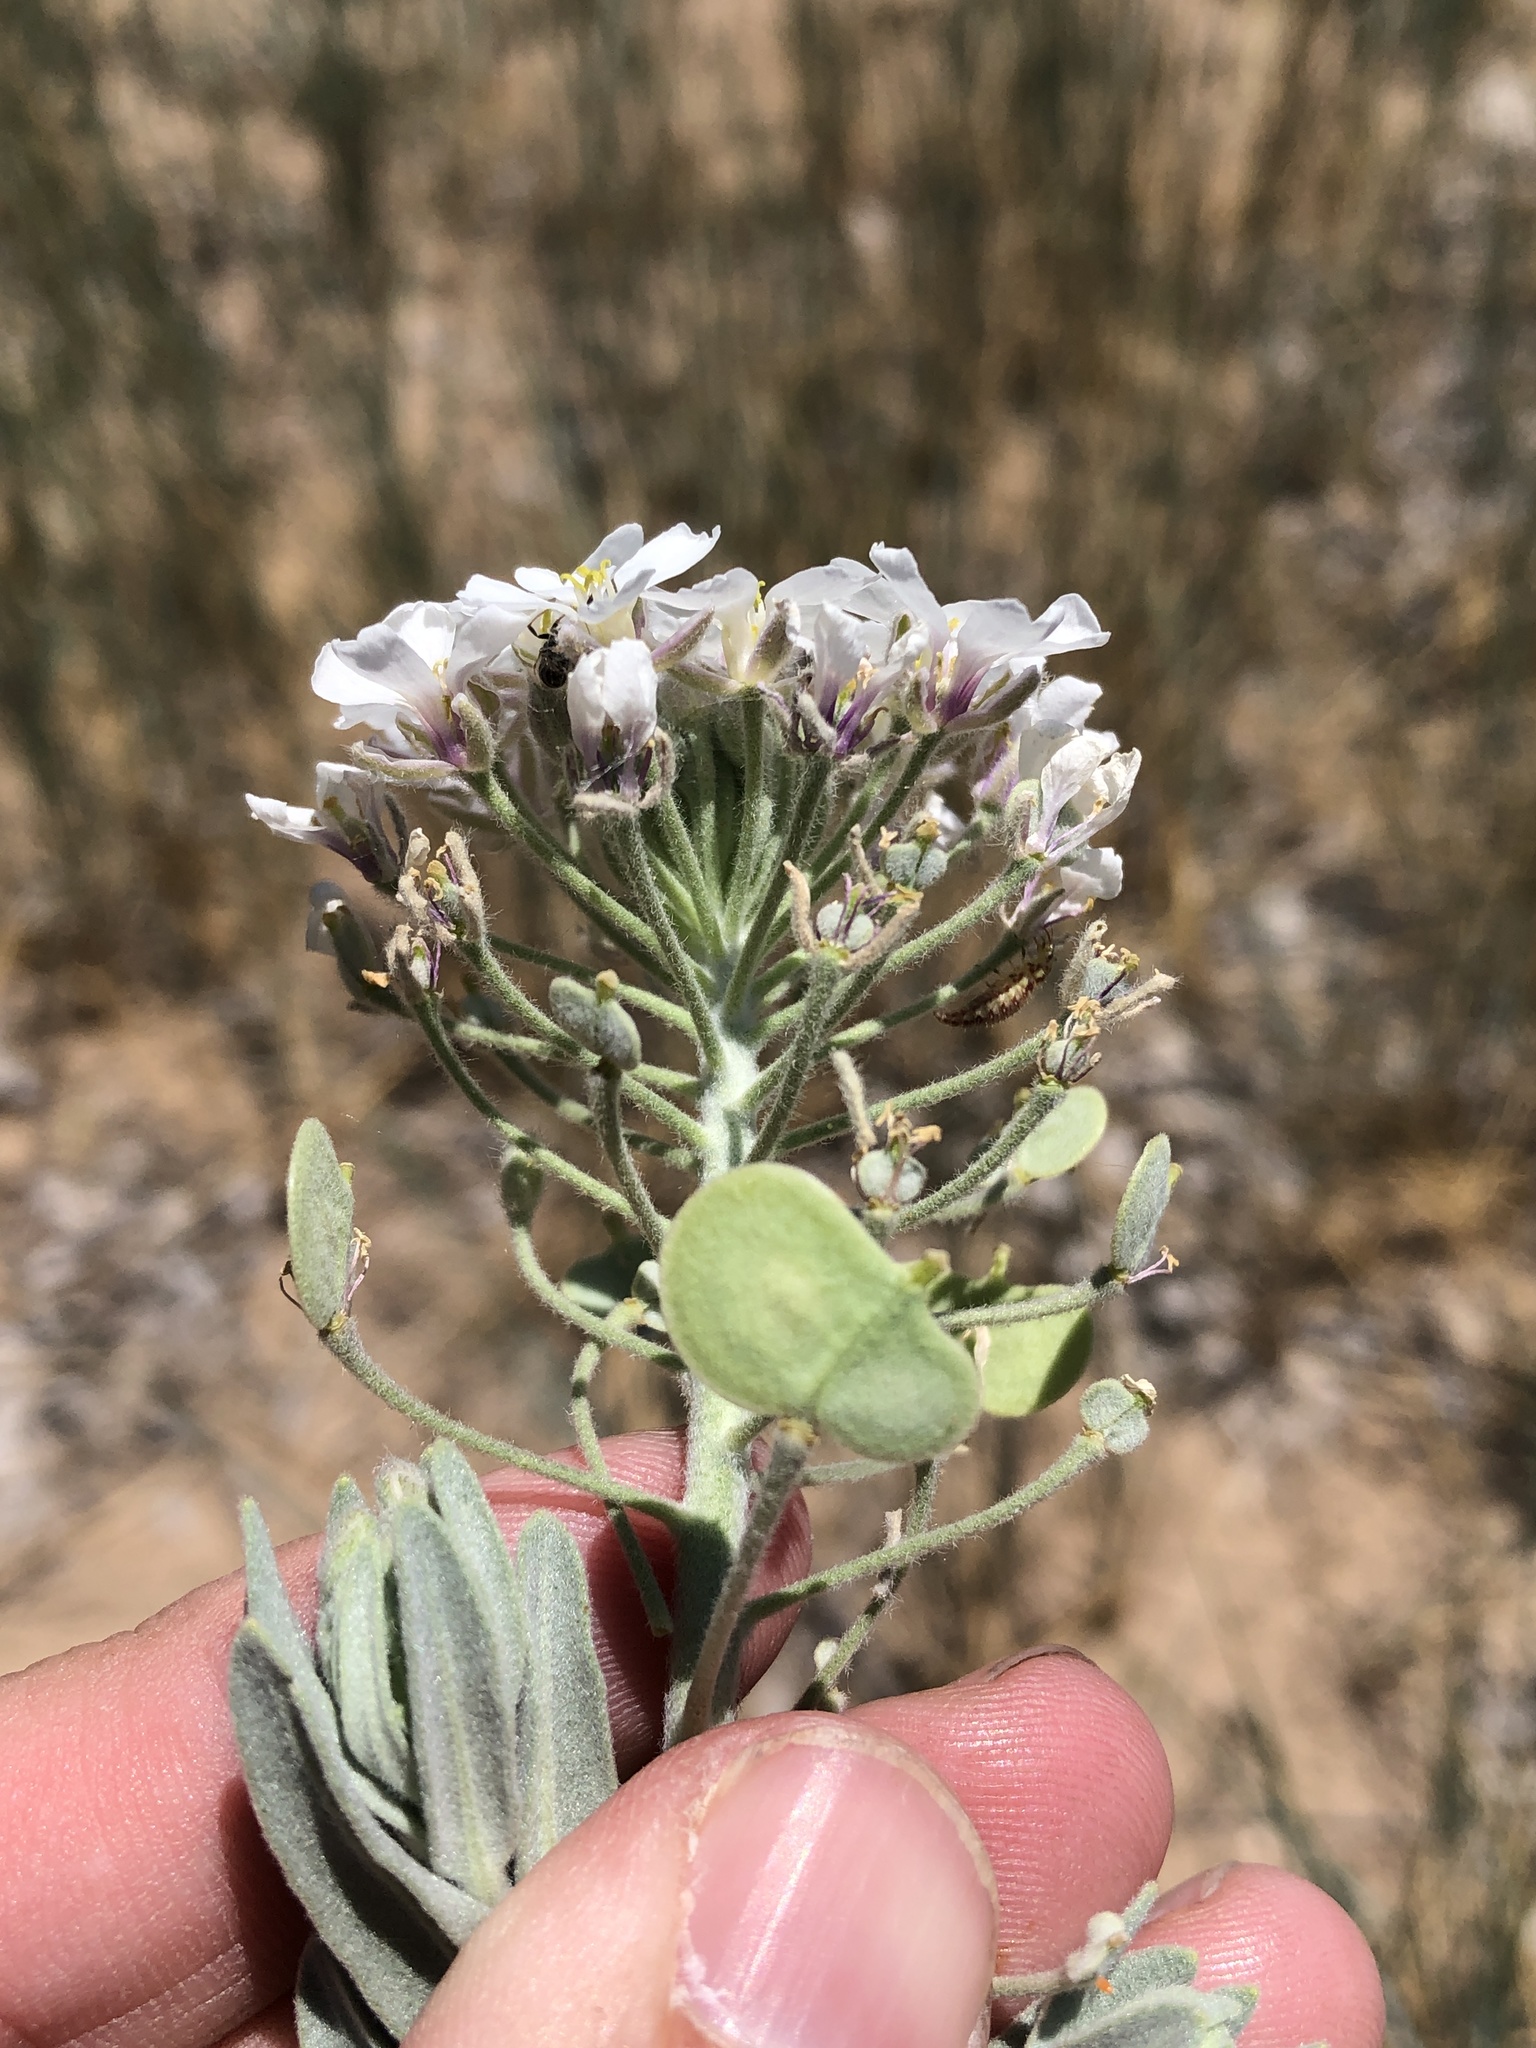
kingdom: Plantae
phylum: Tracheophyta
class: Magnoliopsida
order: Brassicales
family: Brassicaceae
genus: Dimorphocarpa
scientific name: Dimorphocarpa candicans
